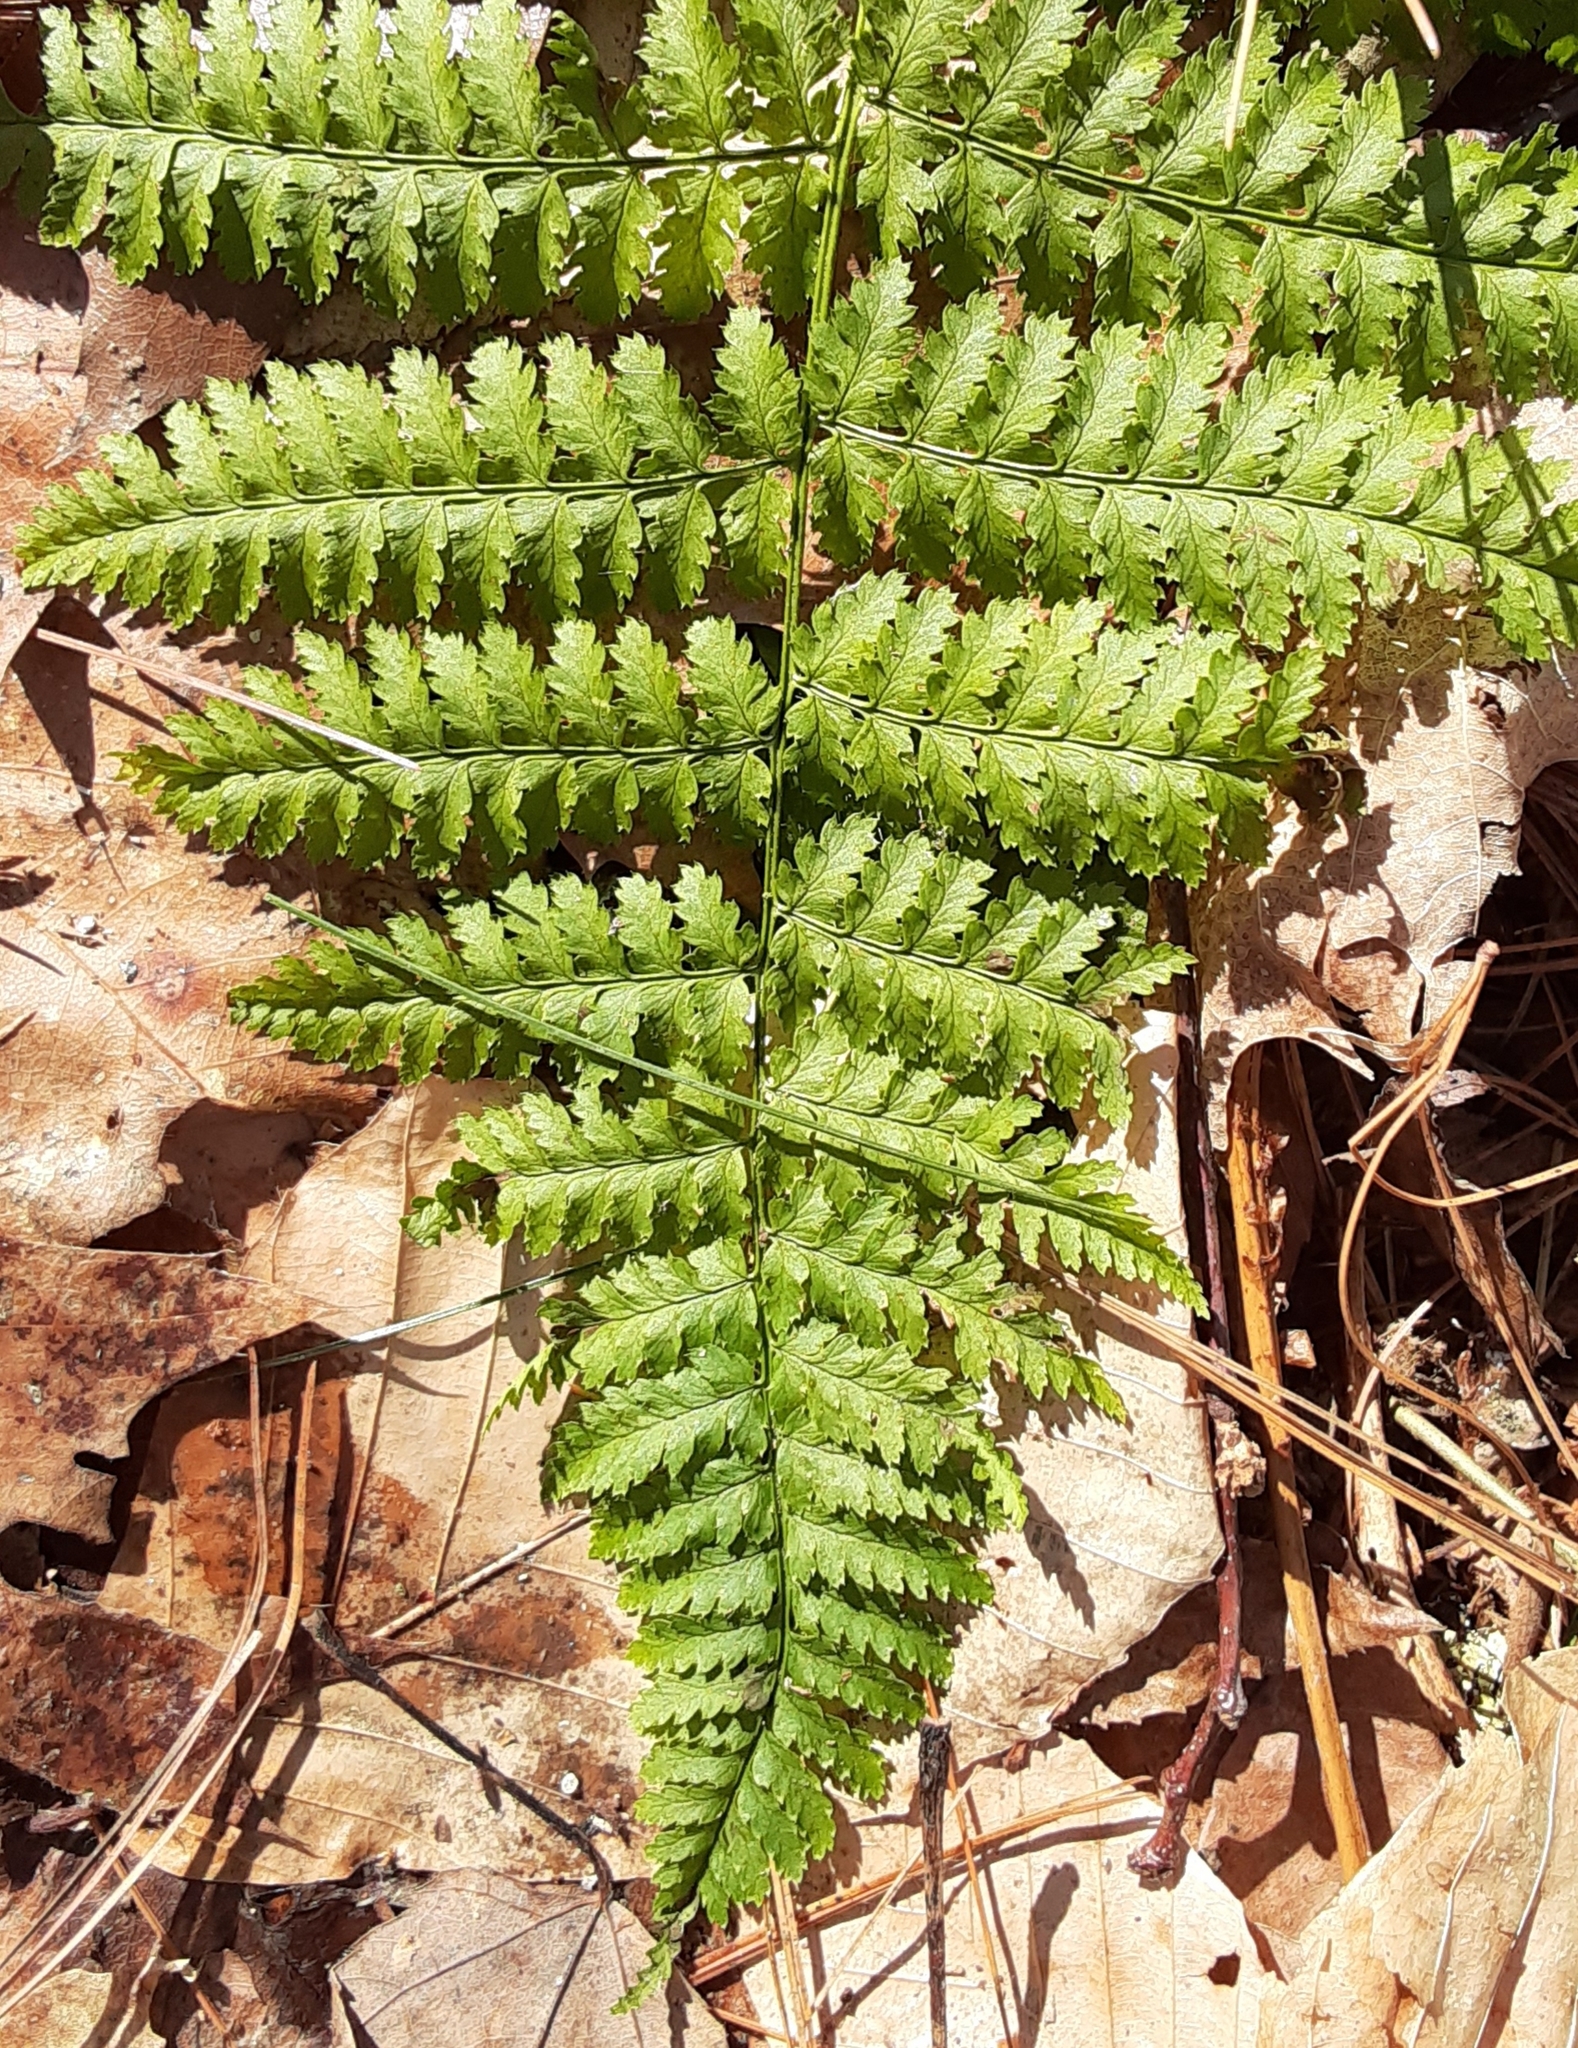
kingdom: Plantae
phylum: Tracheophyta
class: Polypodiopsida
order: Polypodiales
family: Dryopteridaceae
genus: Dryopteris
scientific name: Dryopteris intermedia
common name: Evergreen wood fern
